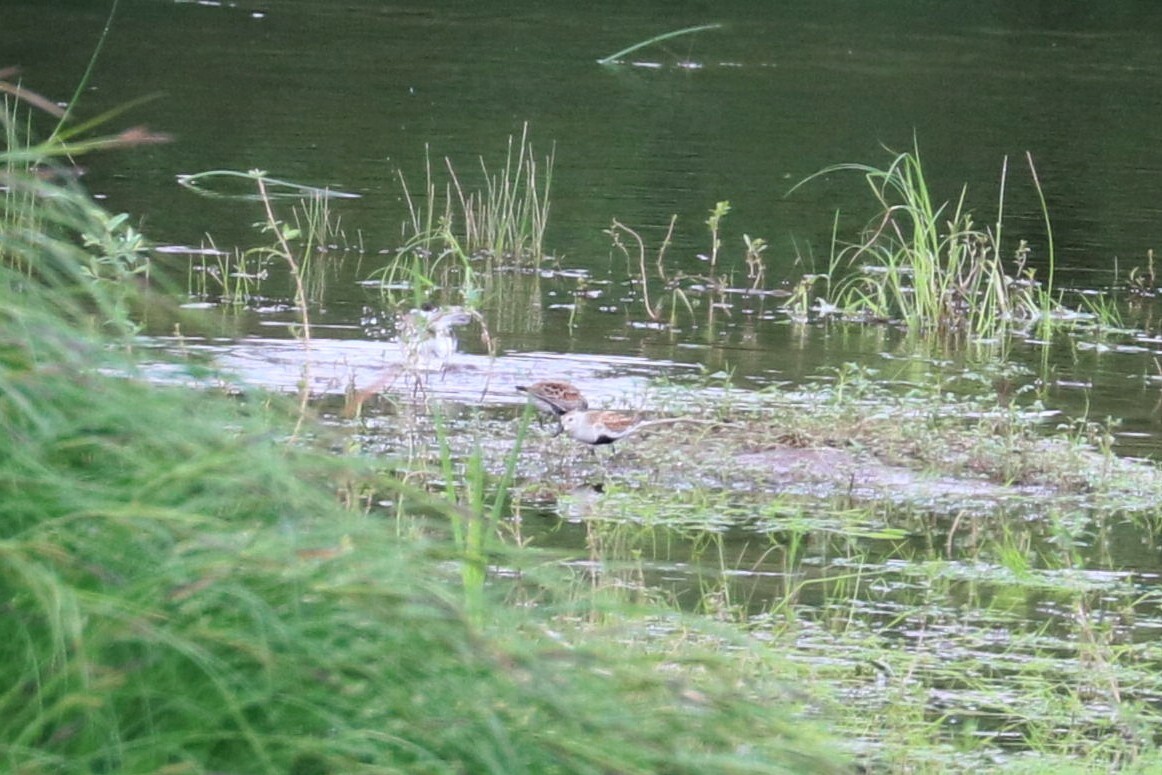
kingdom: Animalia
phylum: Chordata
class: Aves
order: Charadriiformes
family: Scolopacidae
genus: Calidris
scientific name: Calidris alpina
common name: Dunlin
